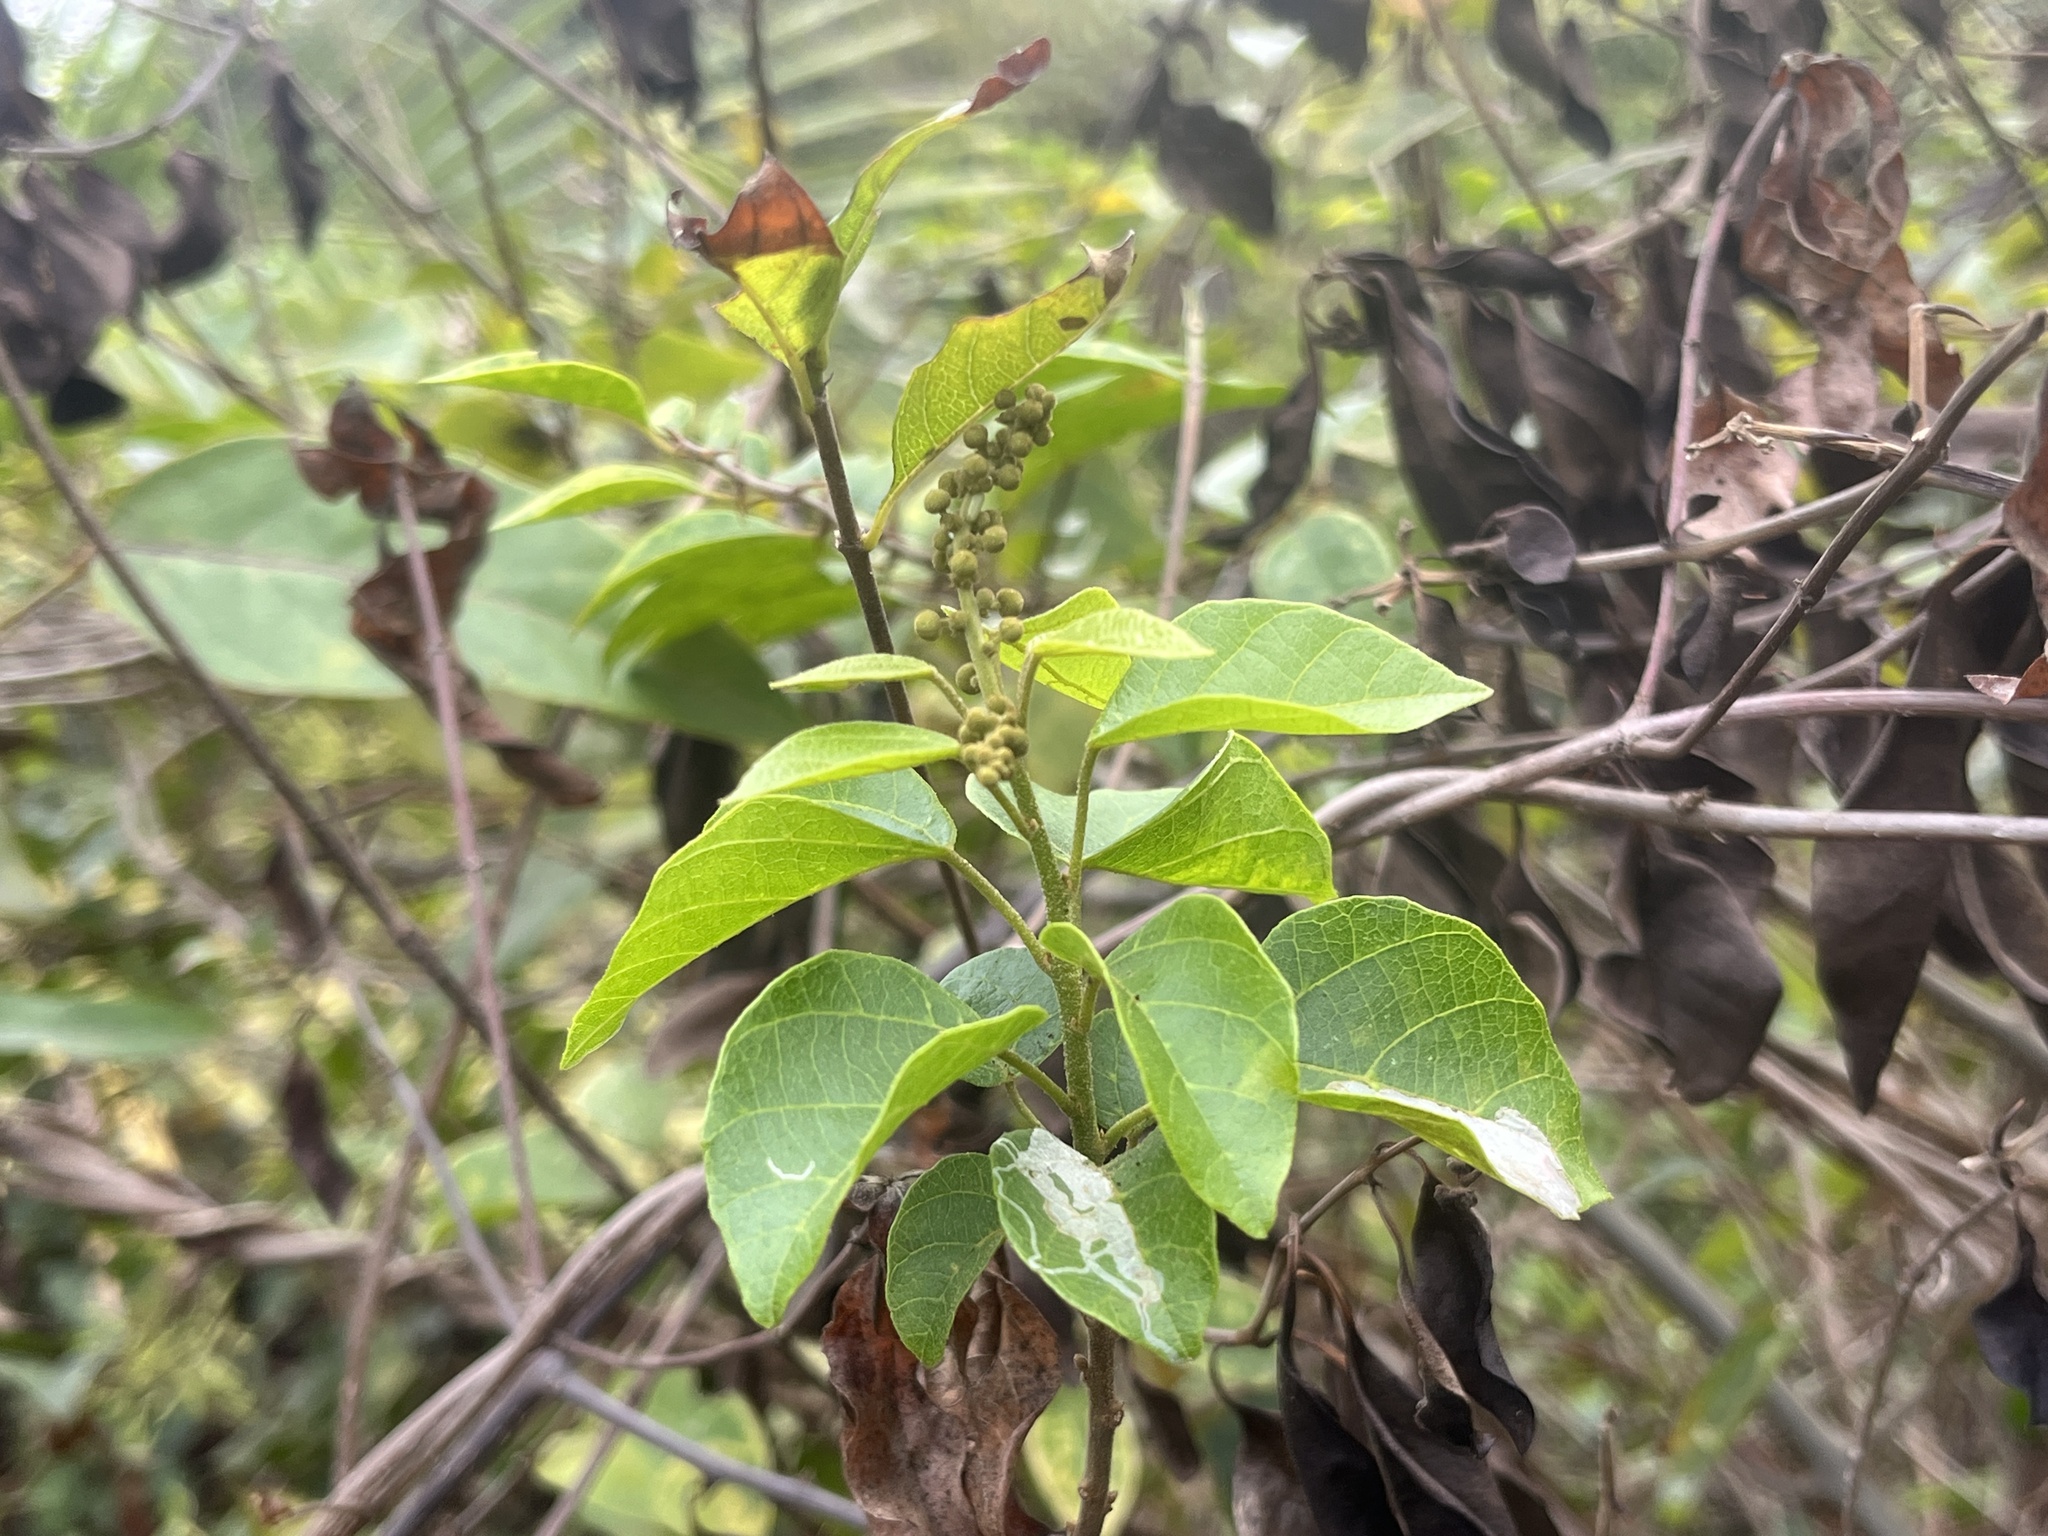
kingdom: Plantae
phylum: Tracheophyta
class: Magnoliopsida
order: Malpighiales
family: Euphorbiaceae
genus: Mallotus
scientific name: Mallotus repandus
